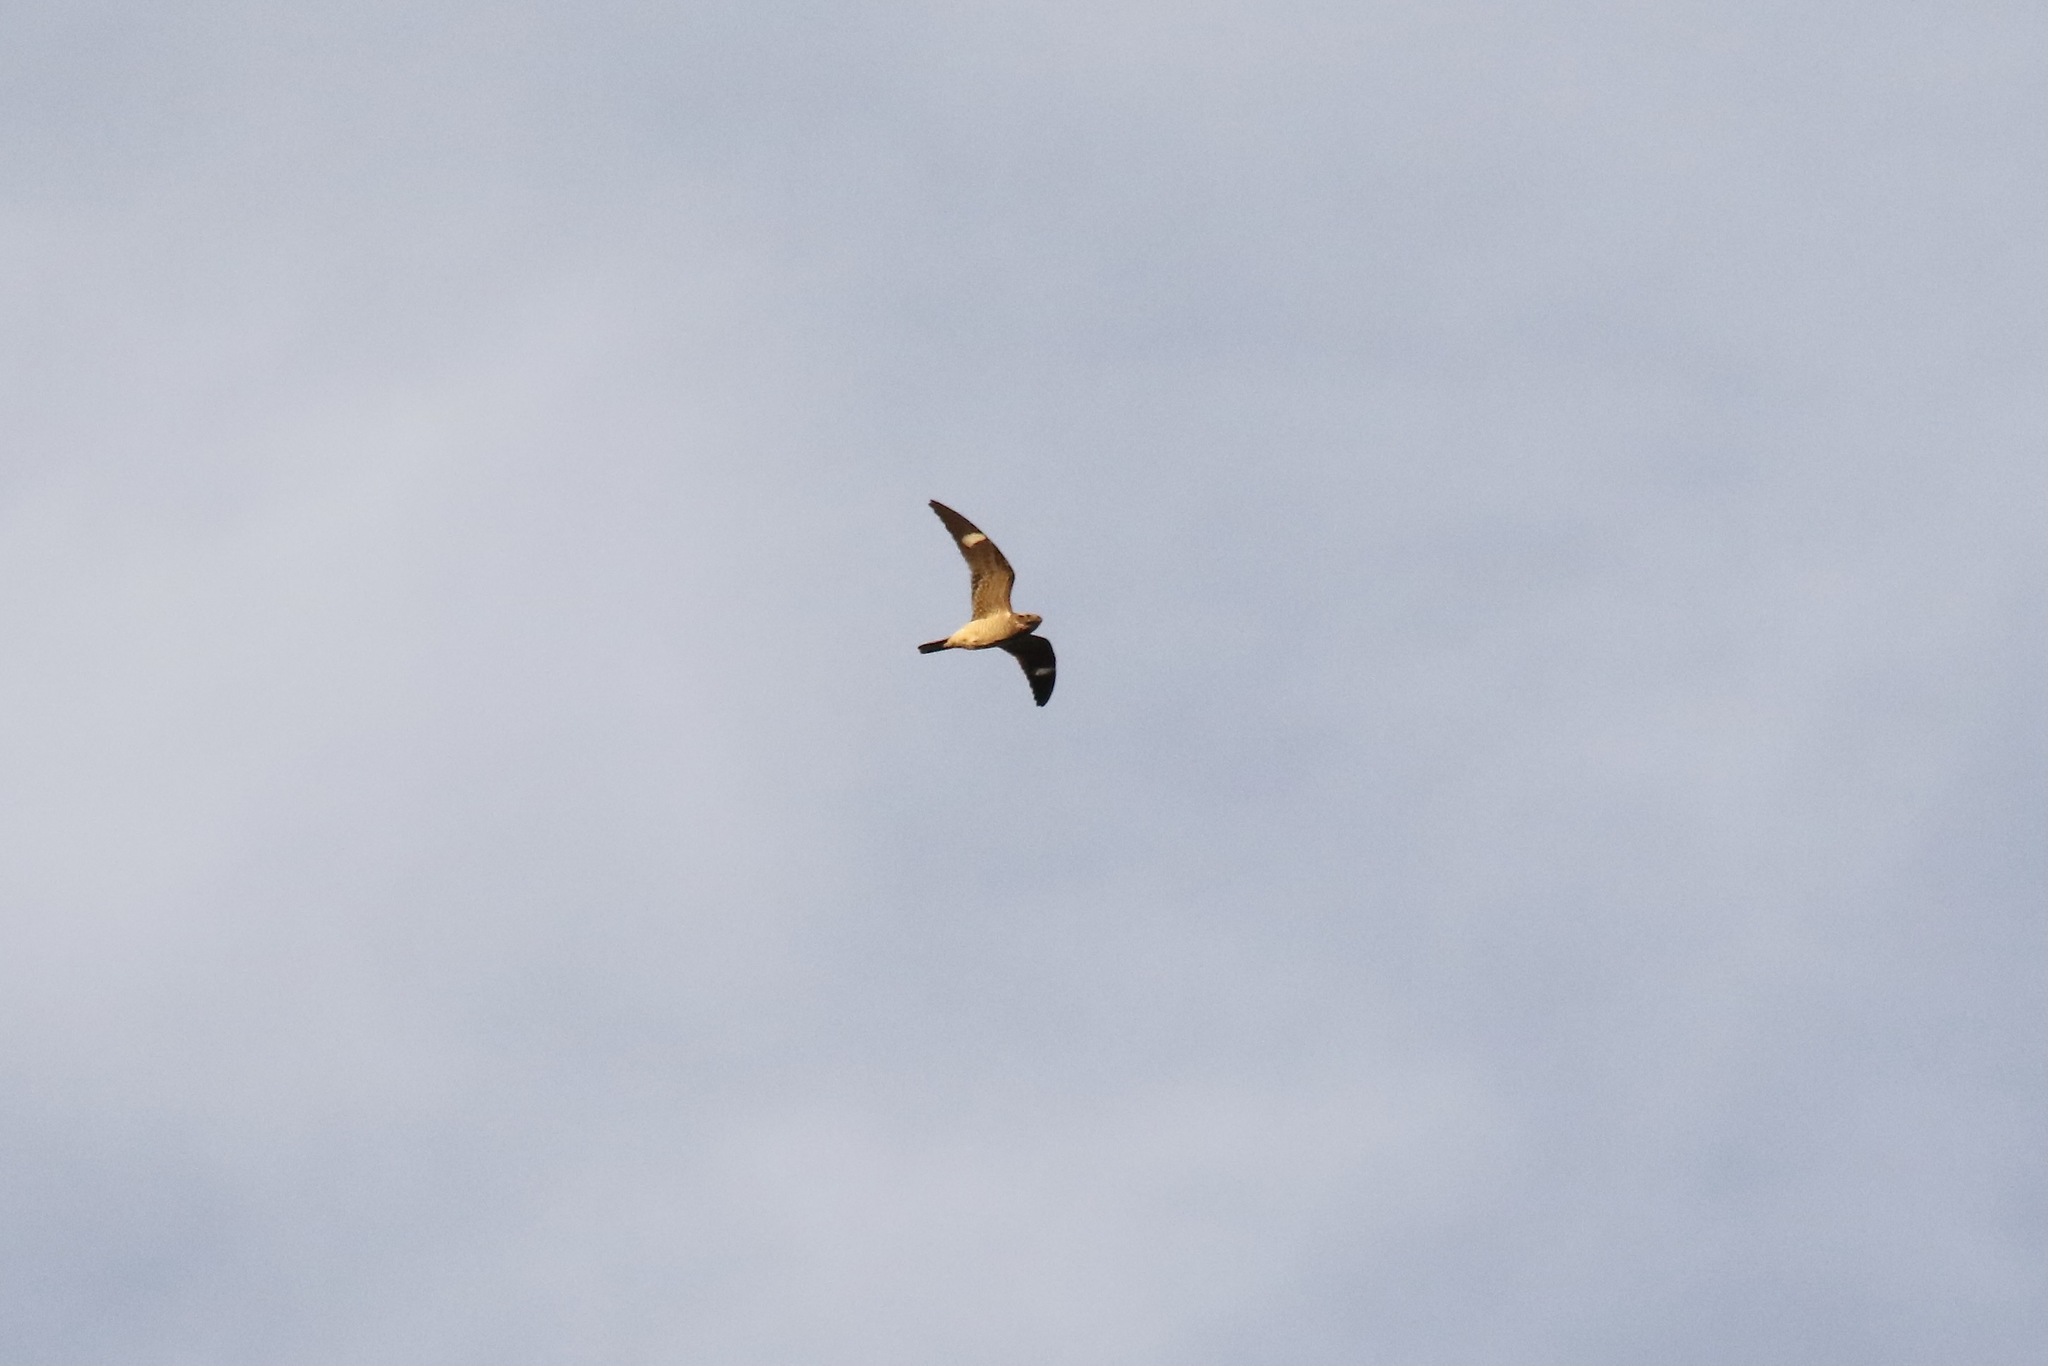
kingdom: Animalia
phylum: Chordata
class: Aves
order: Caprimulgiformes
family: Caprimulgidae
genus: Chordeiles
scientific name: Chordeiles minor
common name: Common nighthawk
